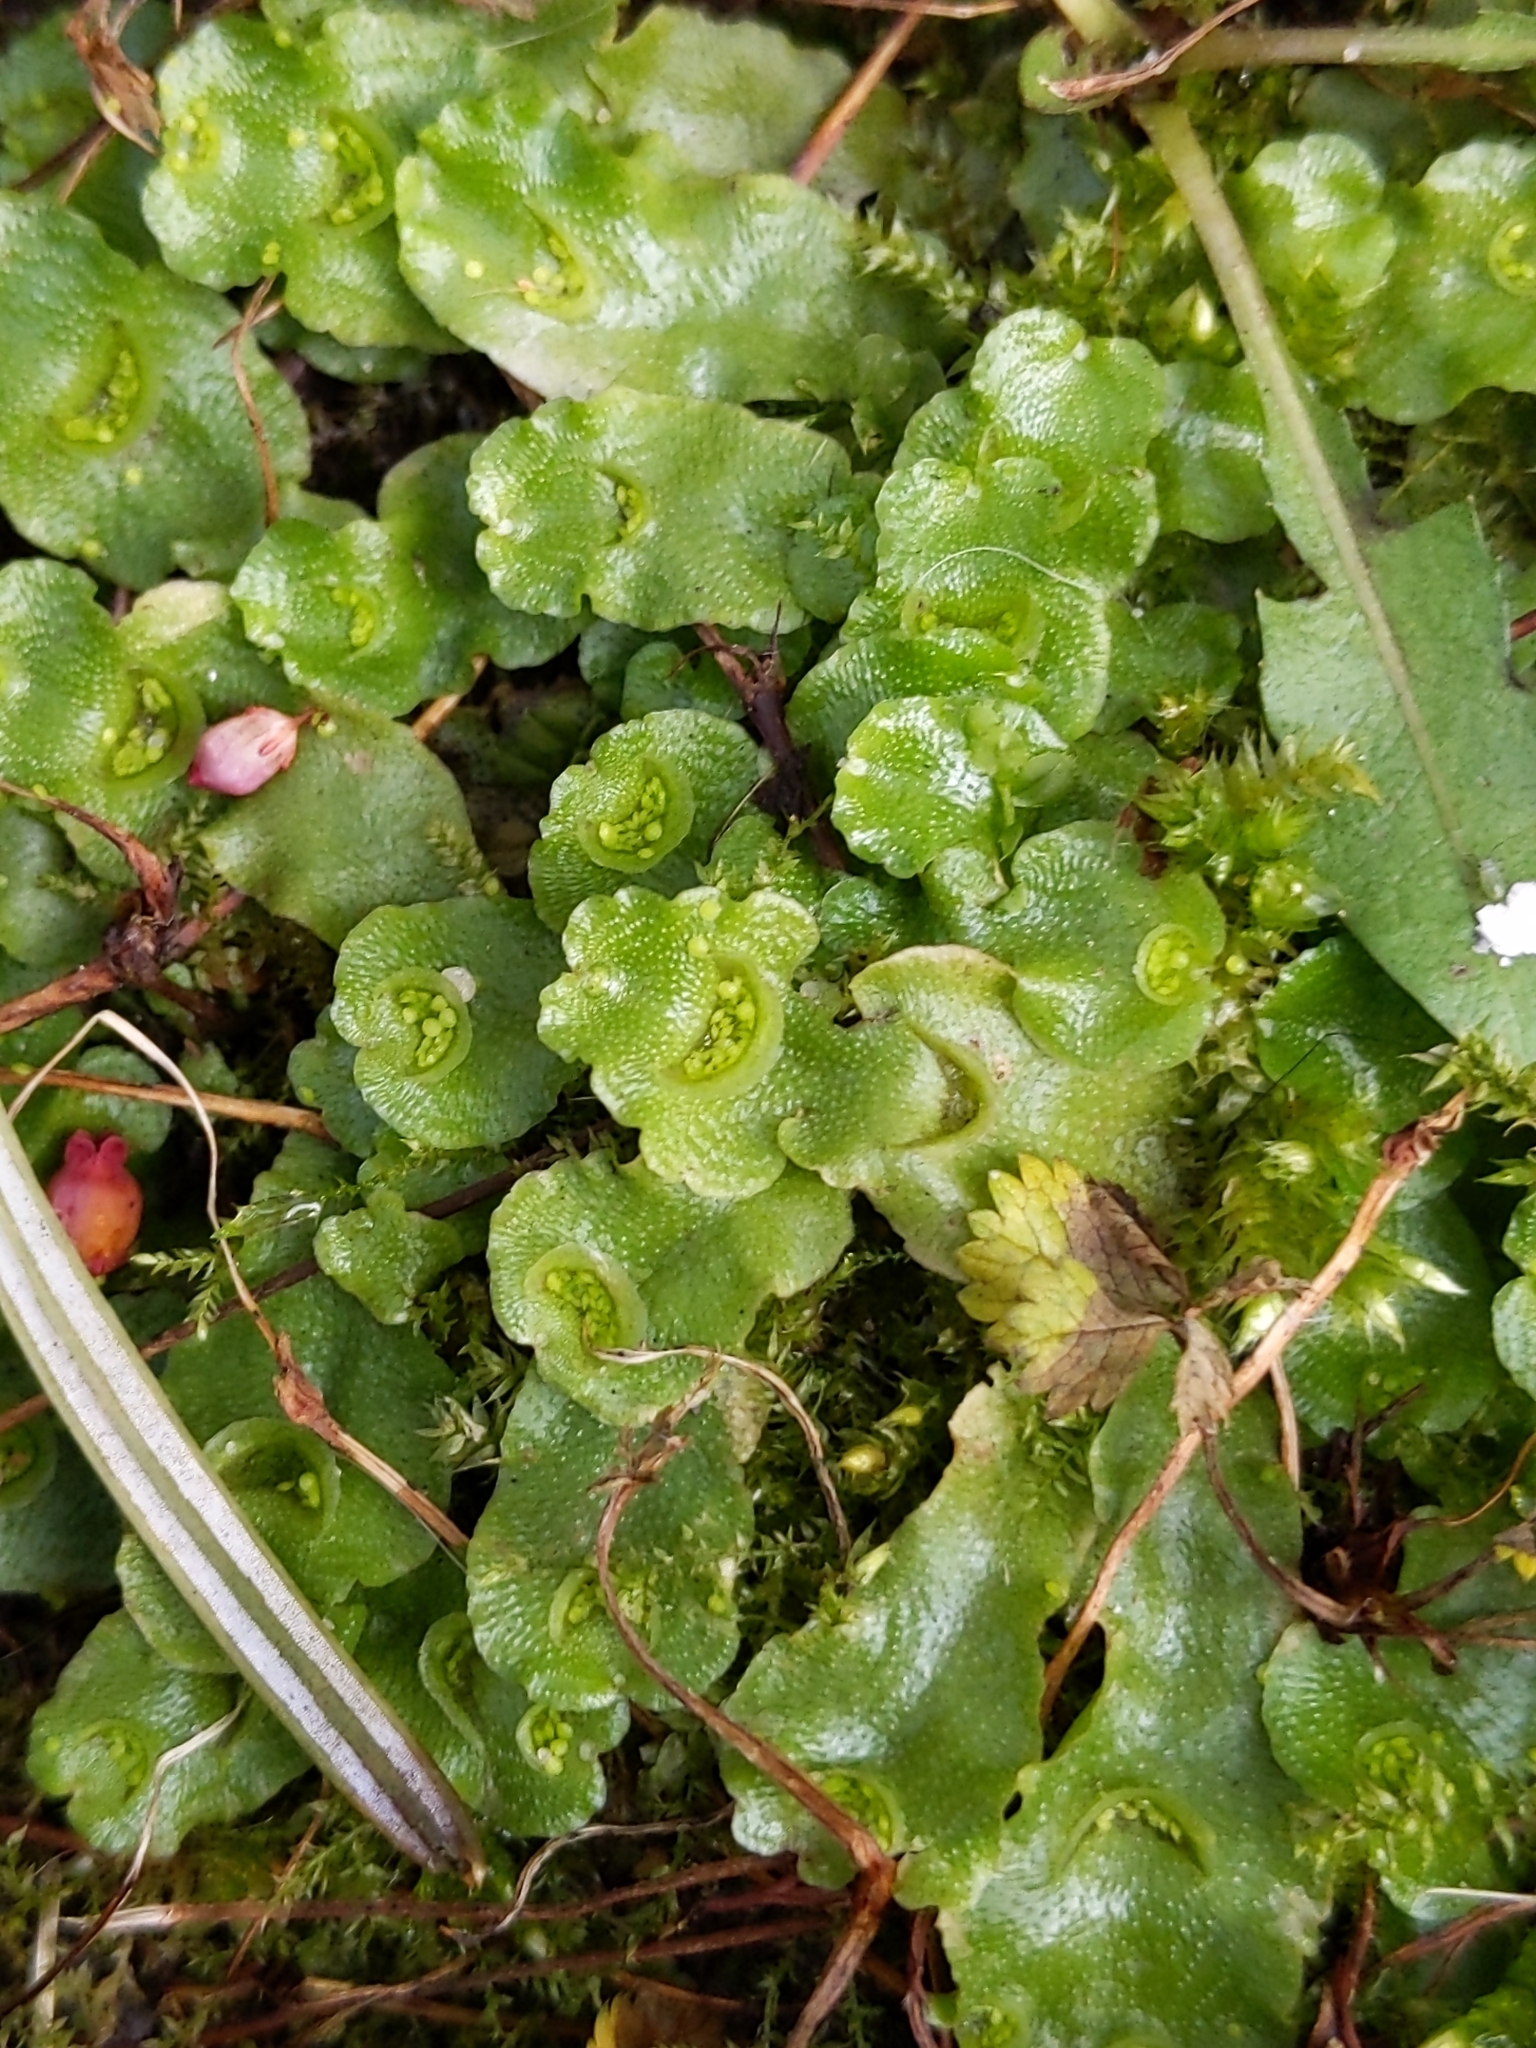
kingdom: Plantae
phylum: Marchantiophyta
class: Marchantiopsida
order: Lunulariales
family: Lunulariaceae
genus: Lunularia
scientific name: Lunularia cruciata
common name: Crescent-cup liverwort
